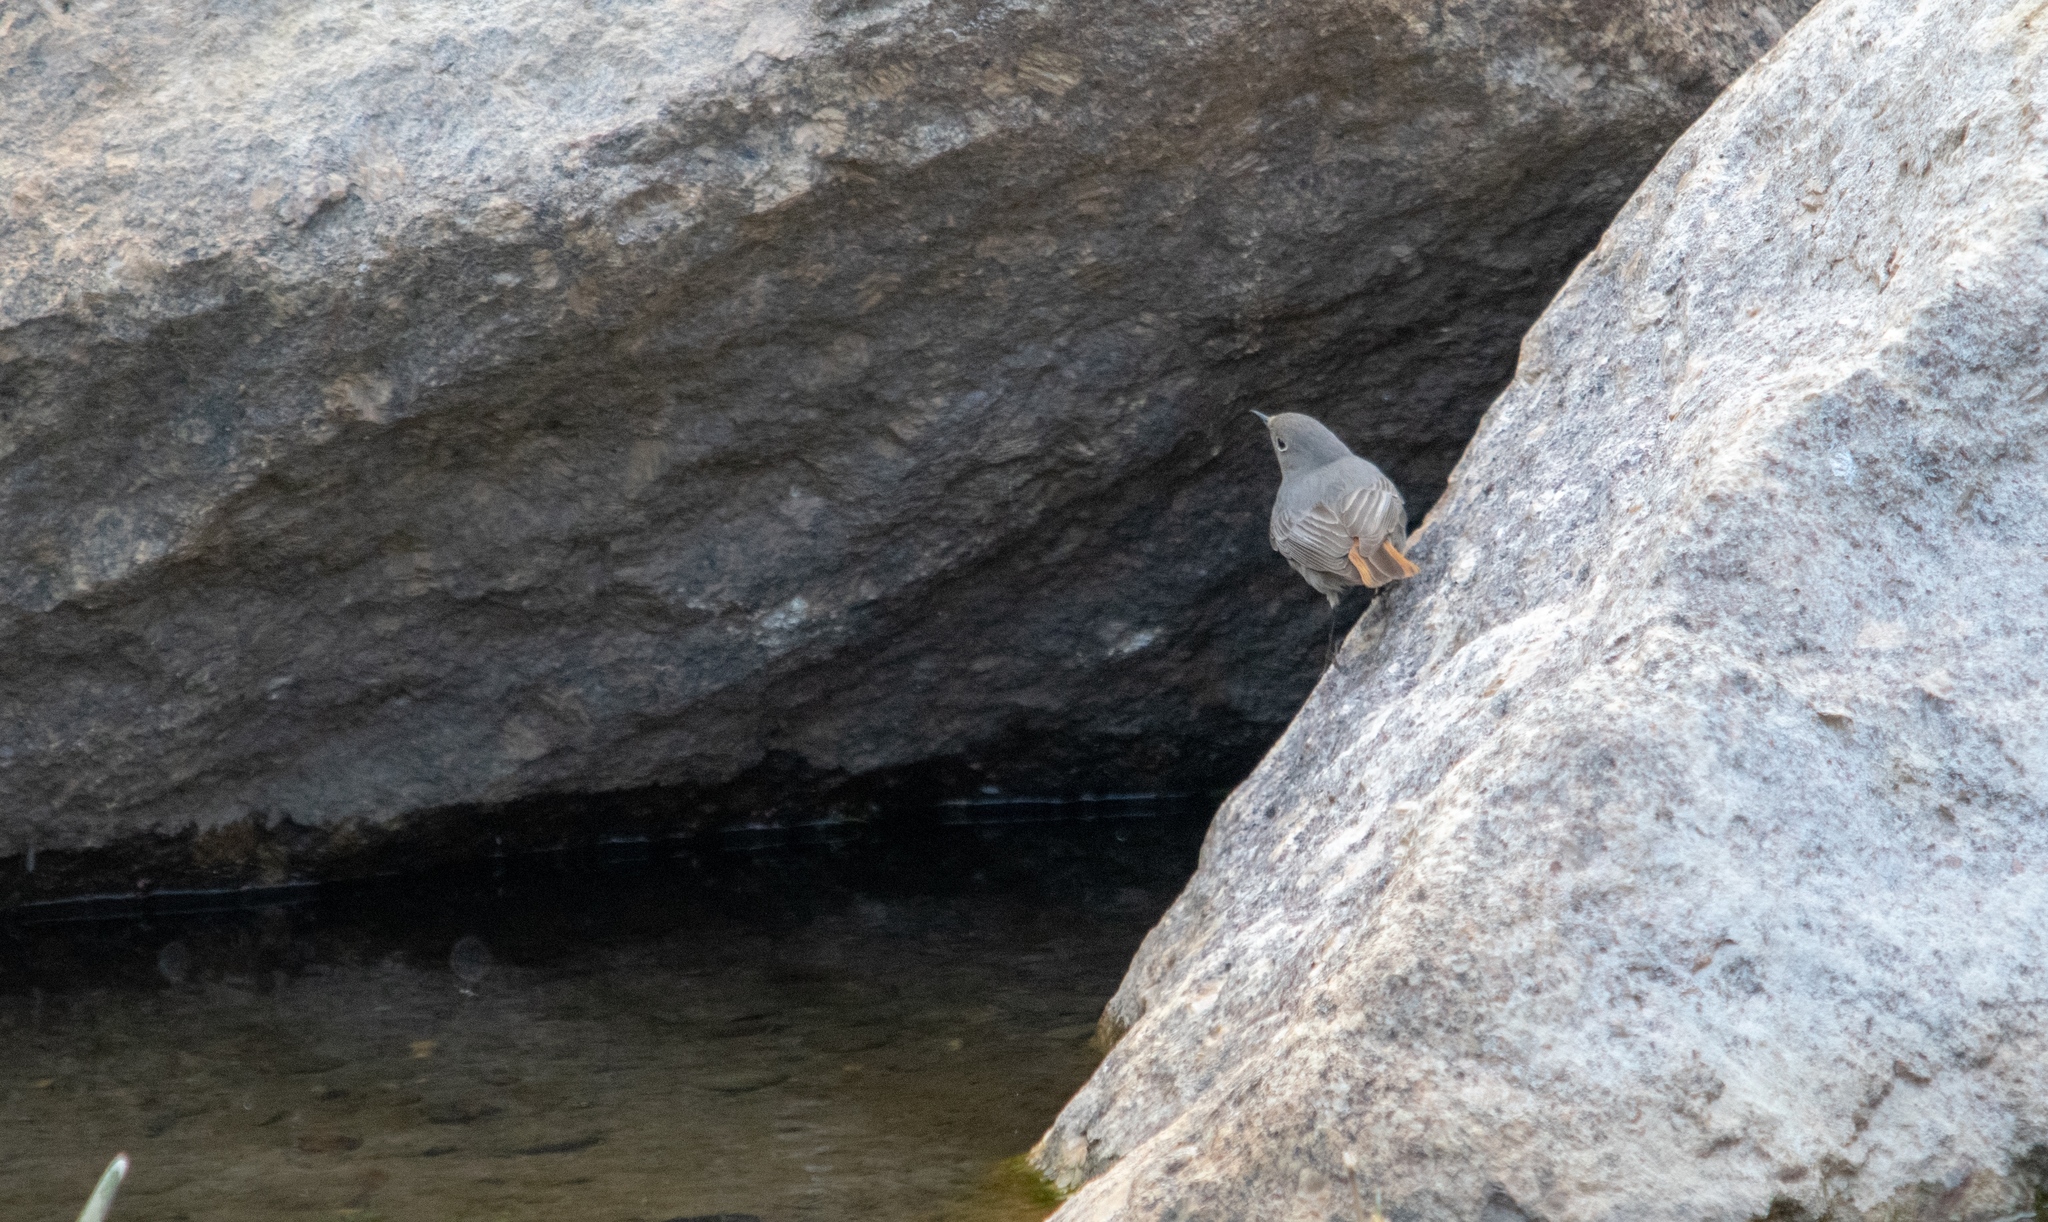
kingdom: Animalia
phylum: Chordata
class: Aves
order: Passeriformes
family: Muscicapidae
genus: Phoenicurus
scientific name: Phoenicurus ochruros
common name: Black redstart
